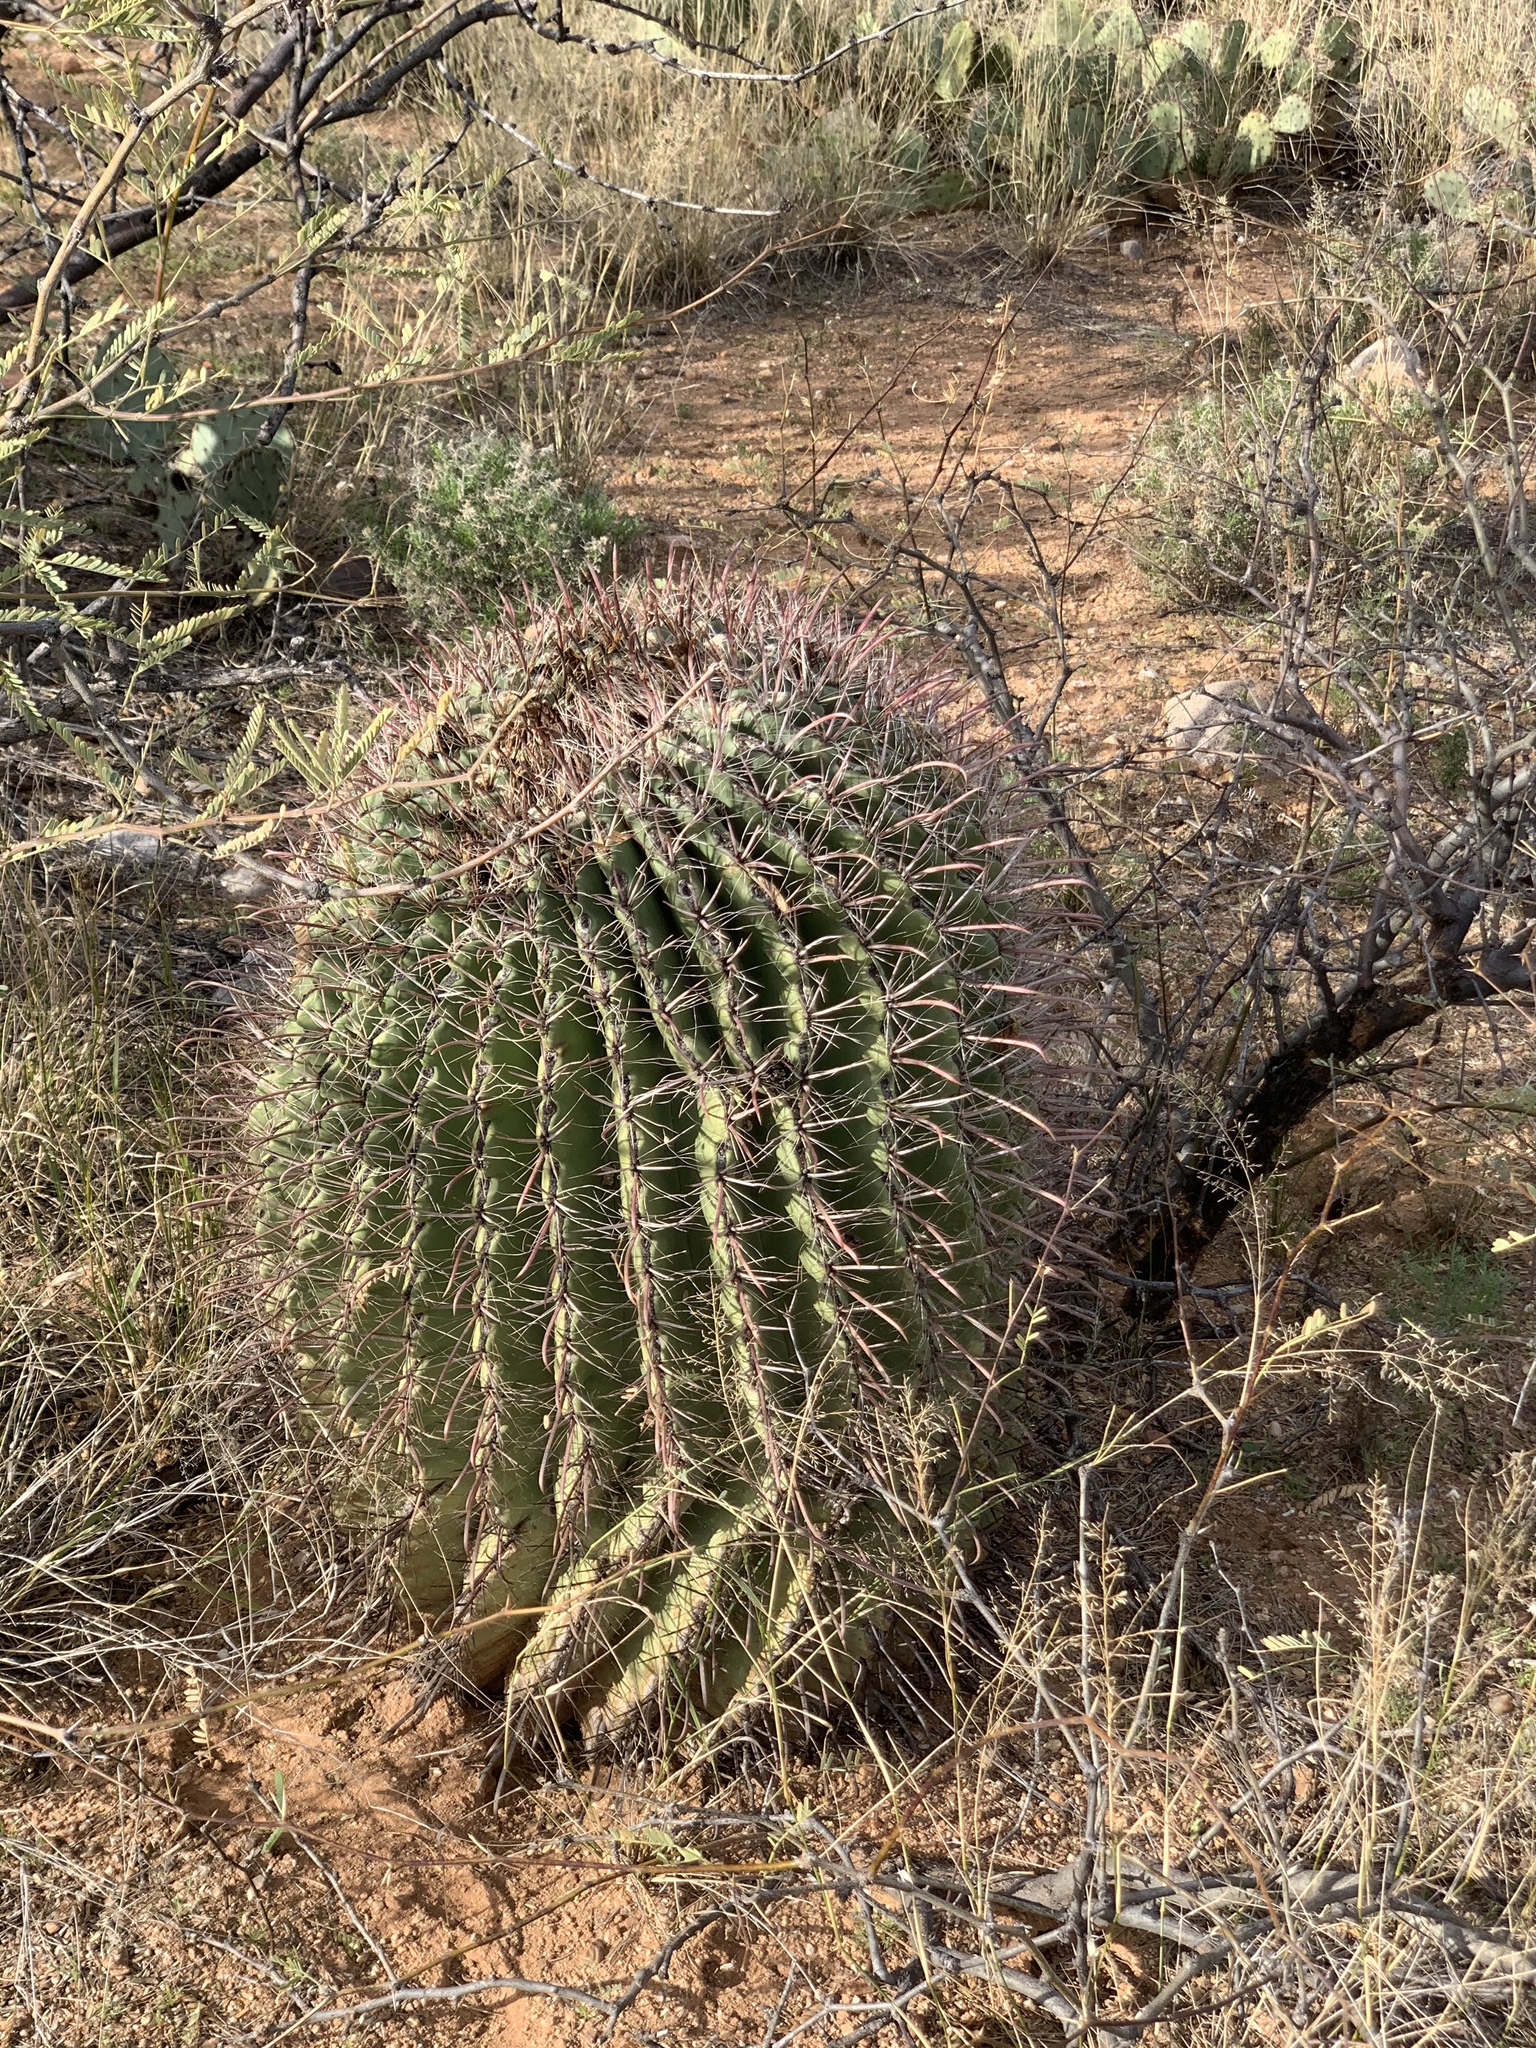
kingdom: Plantae
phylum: Tracheophyta
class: Magnoliopsida
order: Caryophyllales
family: Cactaceae
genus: Ferocactus
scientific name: Ferocactus wislizeni
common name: Candy barrel cactus
